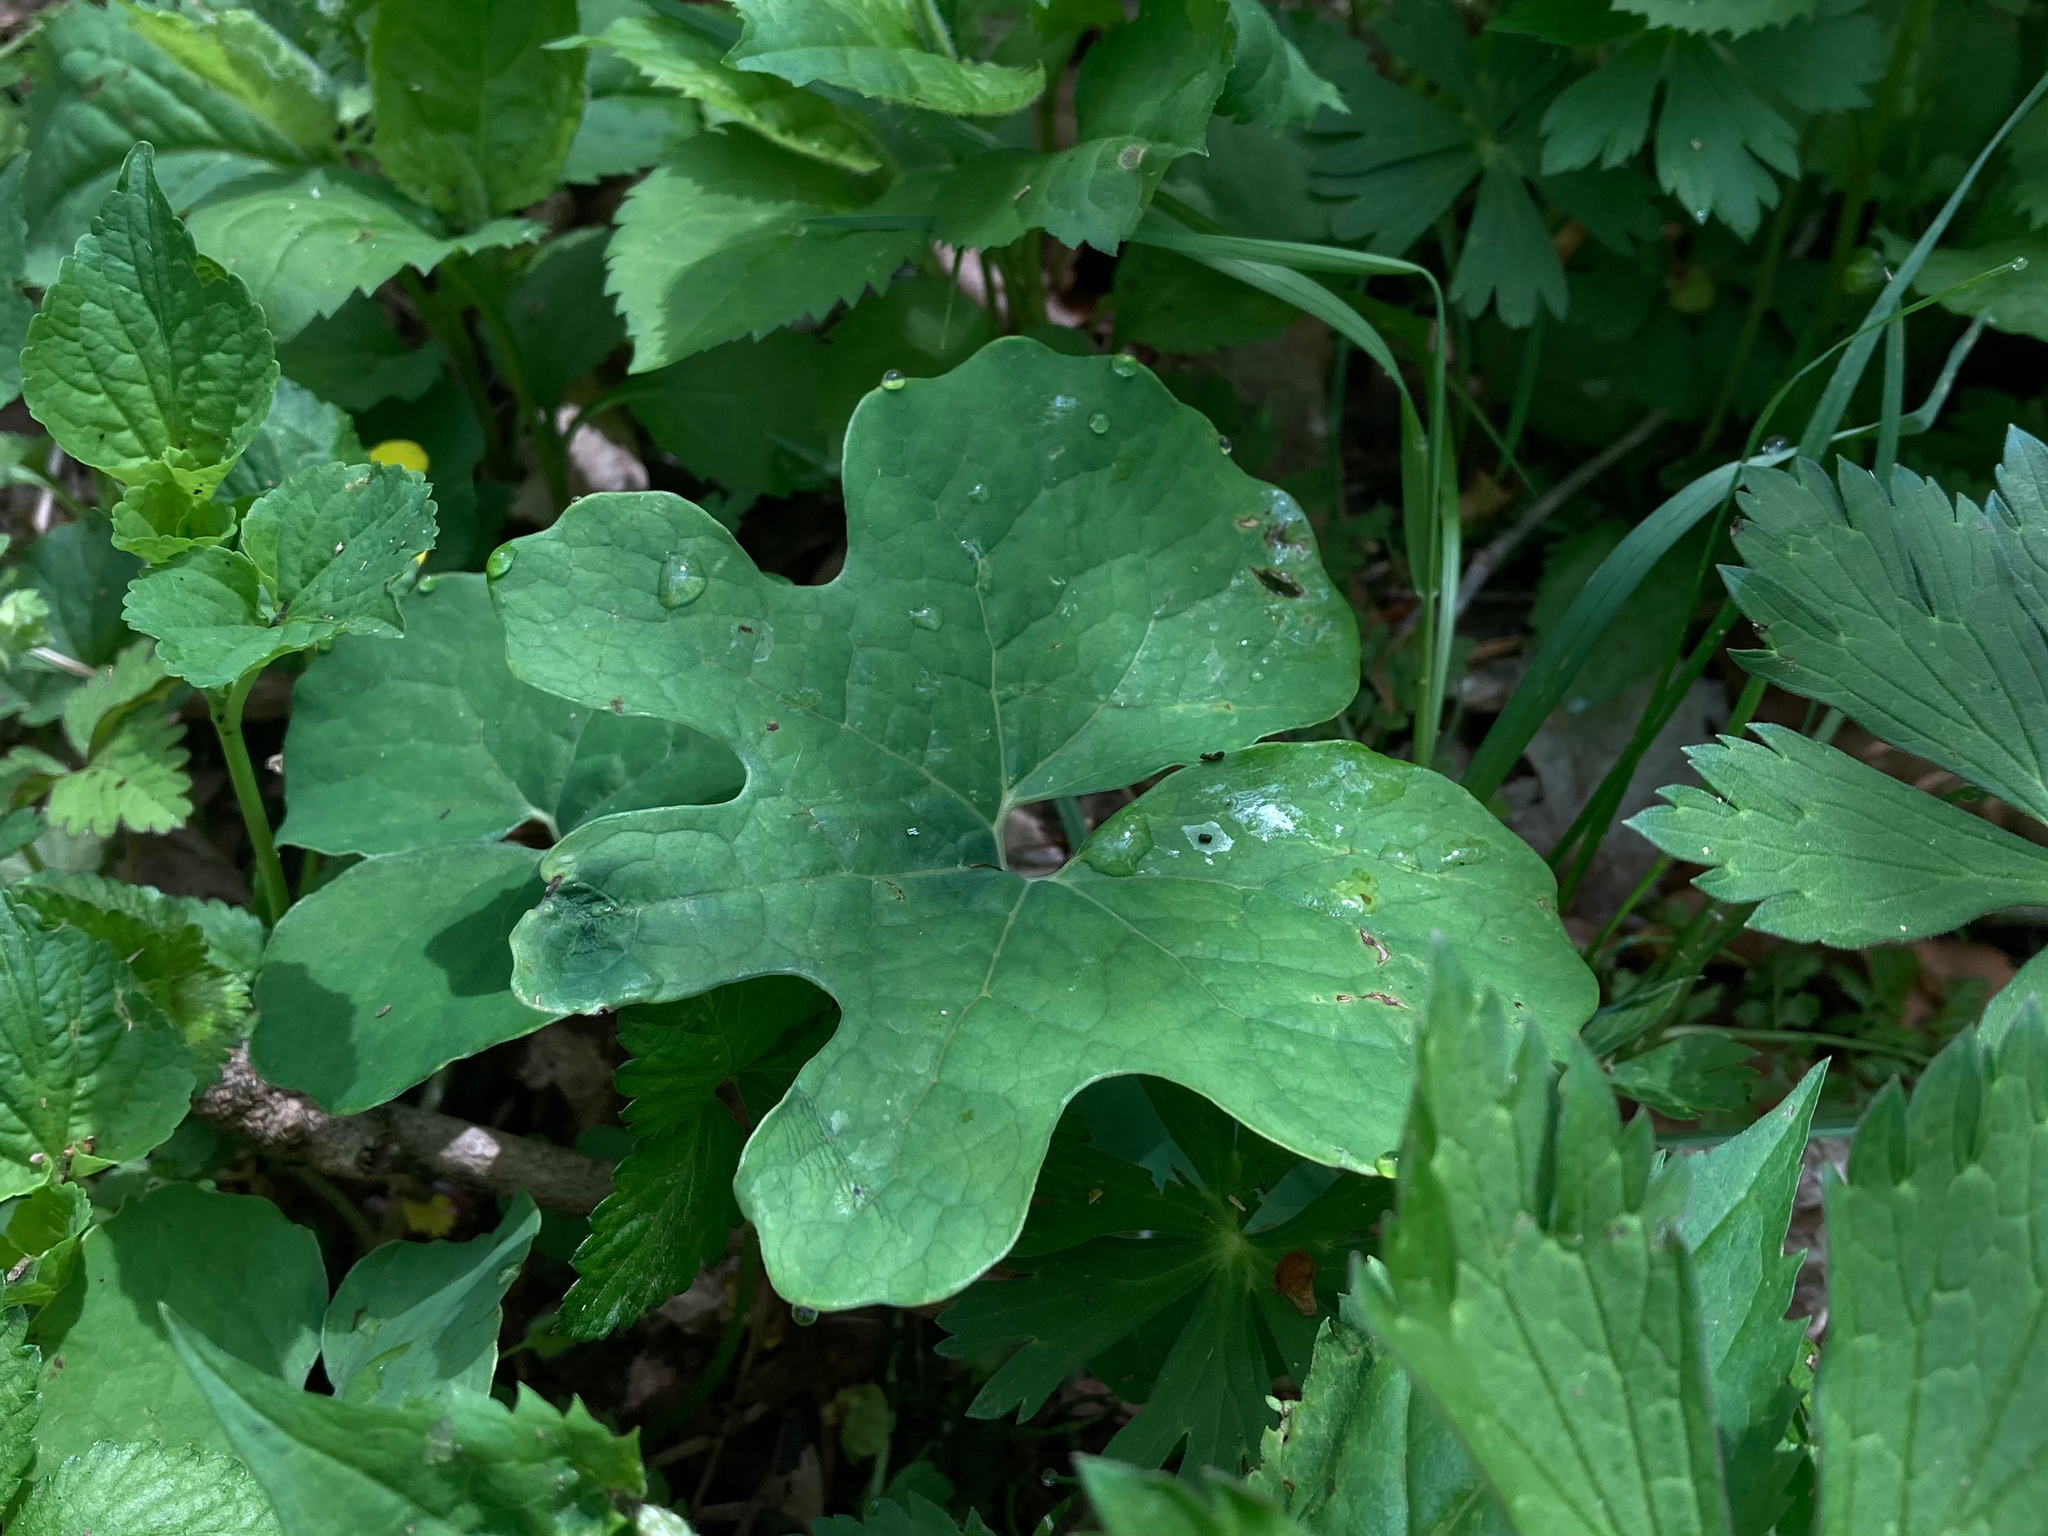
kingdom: Plantae
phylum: Tracheophyta
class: Magnoliopsida
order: Ranunculales
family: Papaveraceae
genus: Sanguinaria
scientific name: Sanguinaria canadensis
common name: Bloodroot
